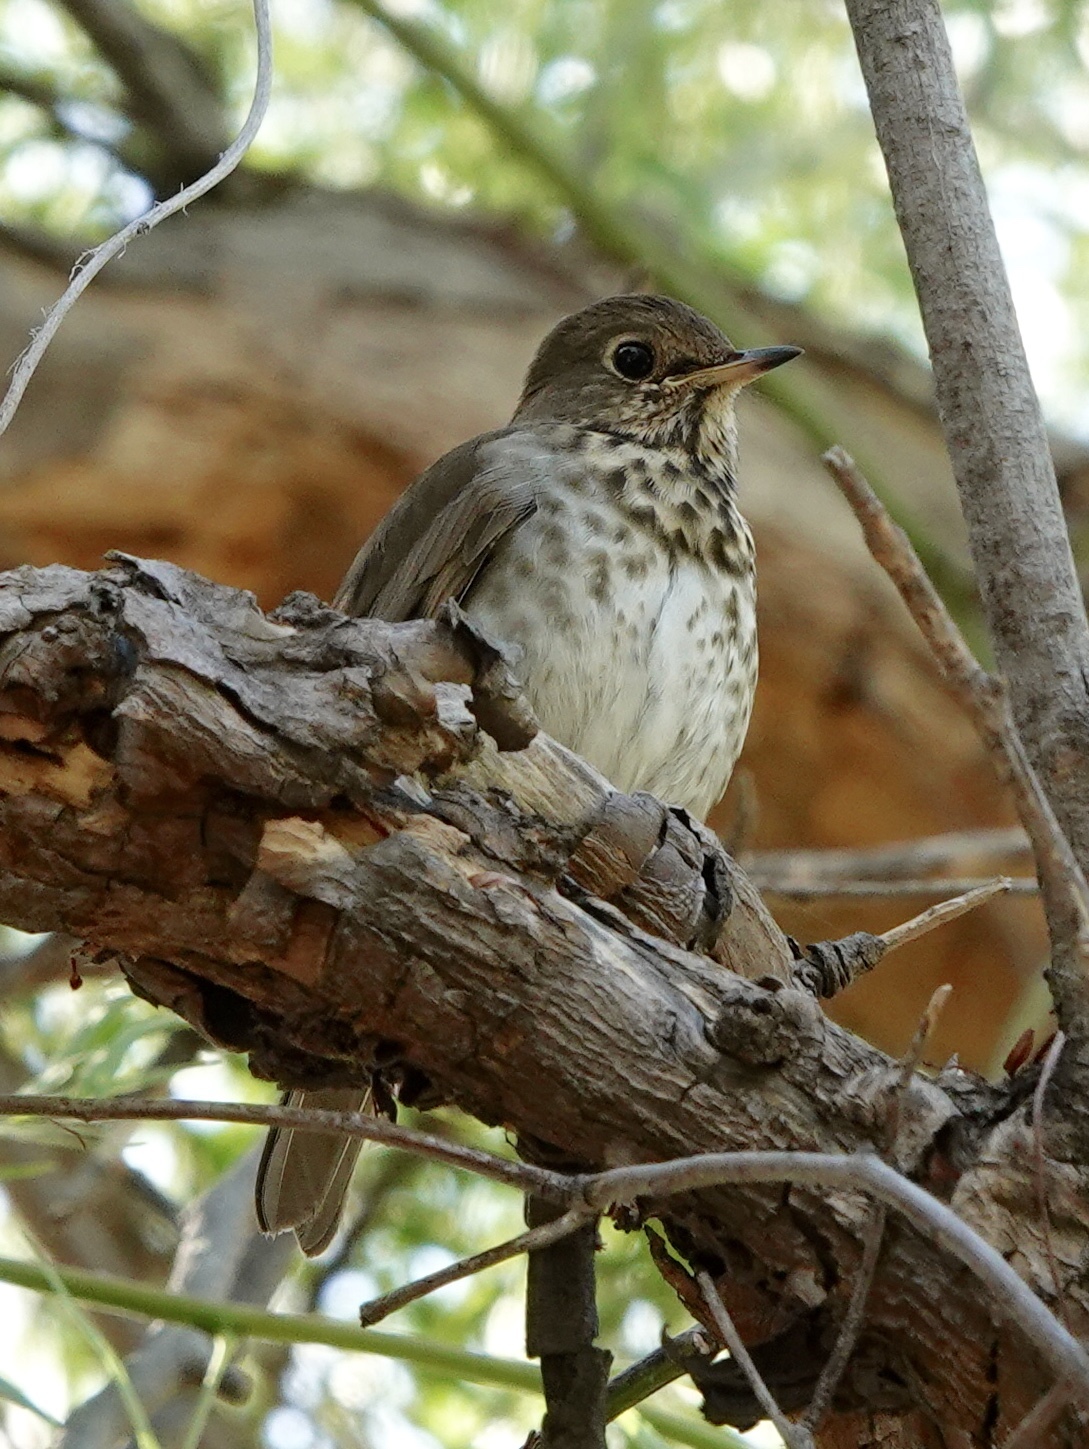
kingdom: Animalia
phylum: Chordata
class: Aves
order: Passeriformes
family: Turdidae
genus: Catharus
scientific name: Catharus guttatus
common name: Hermit thrush
